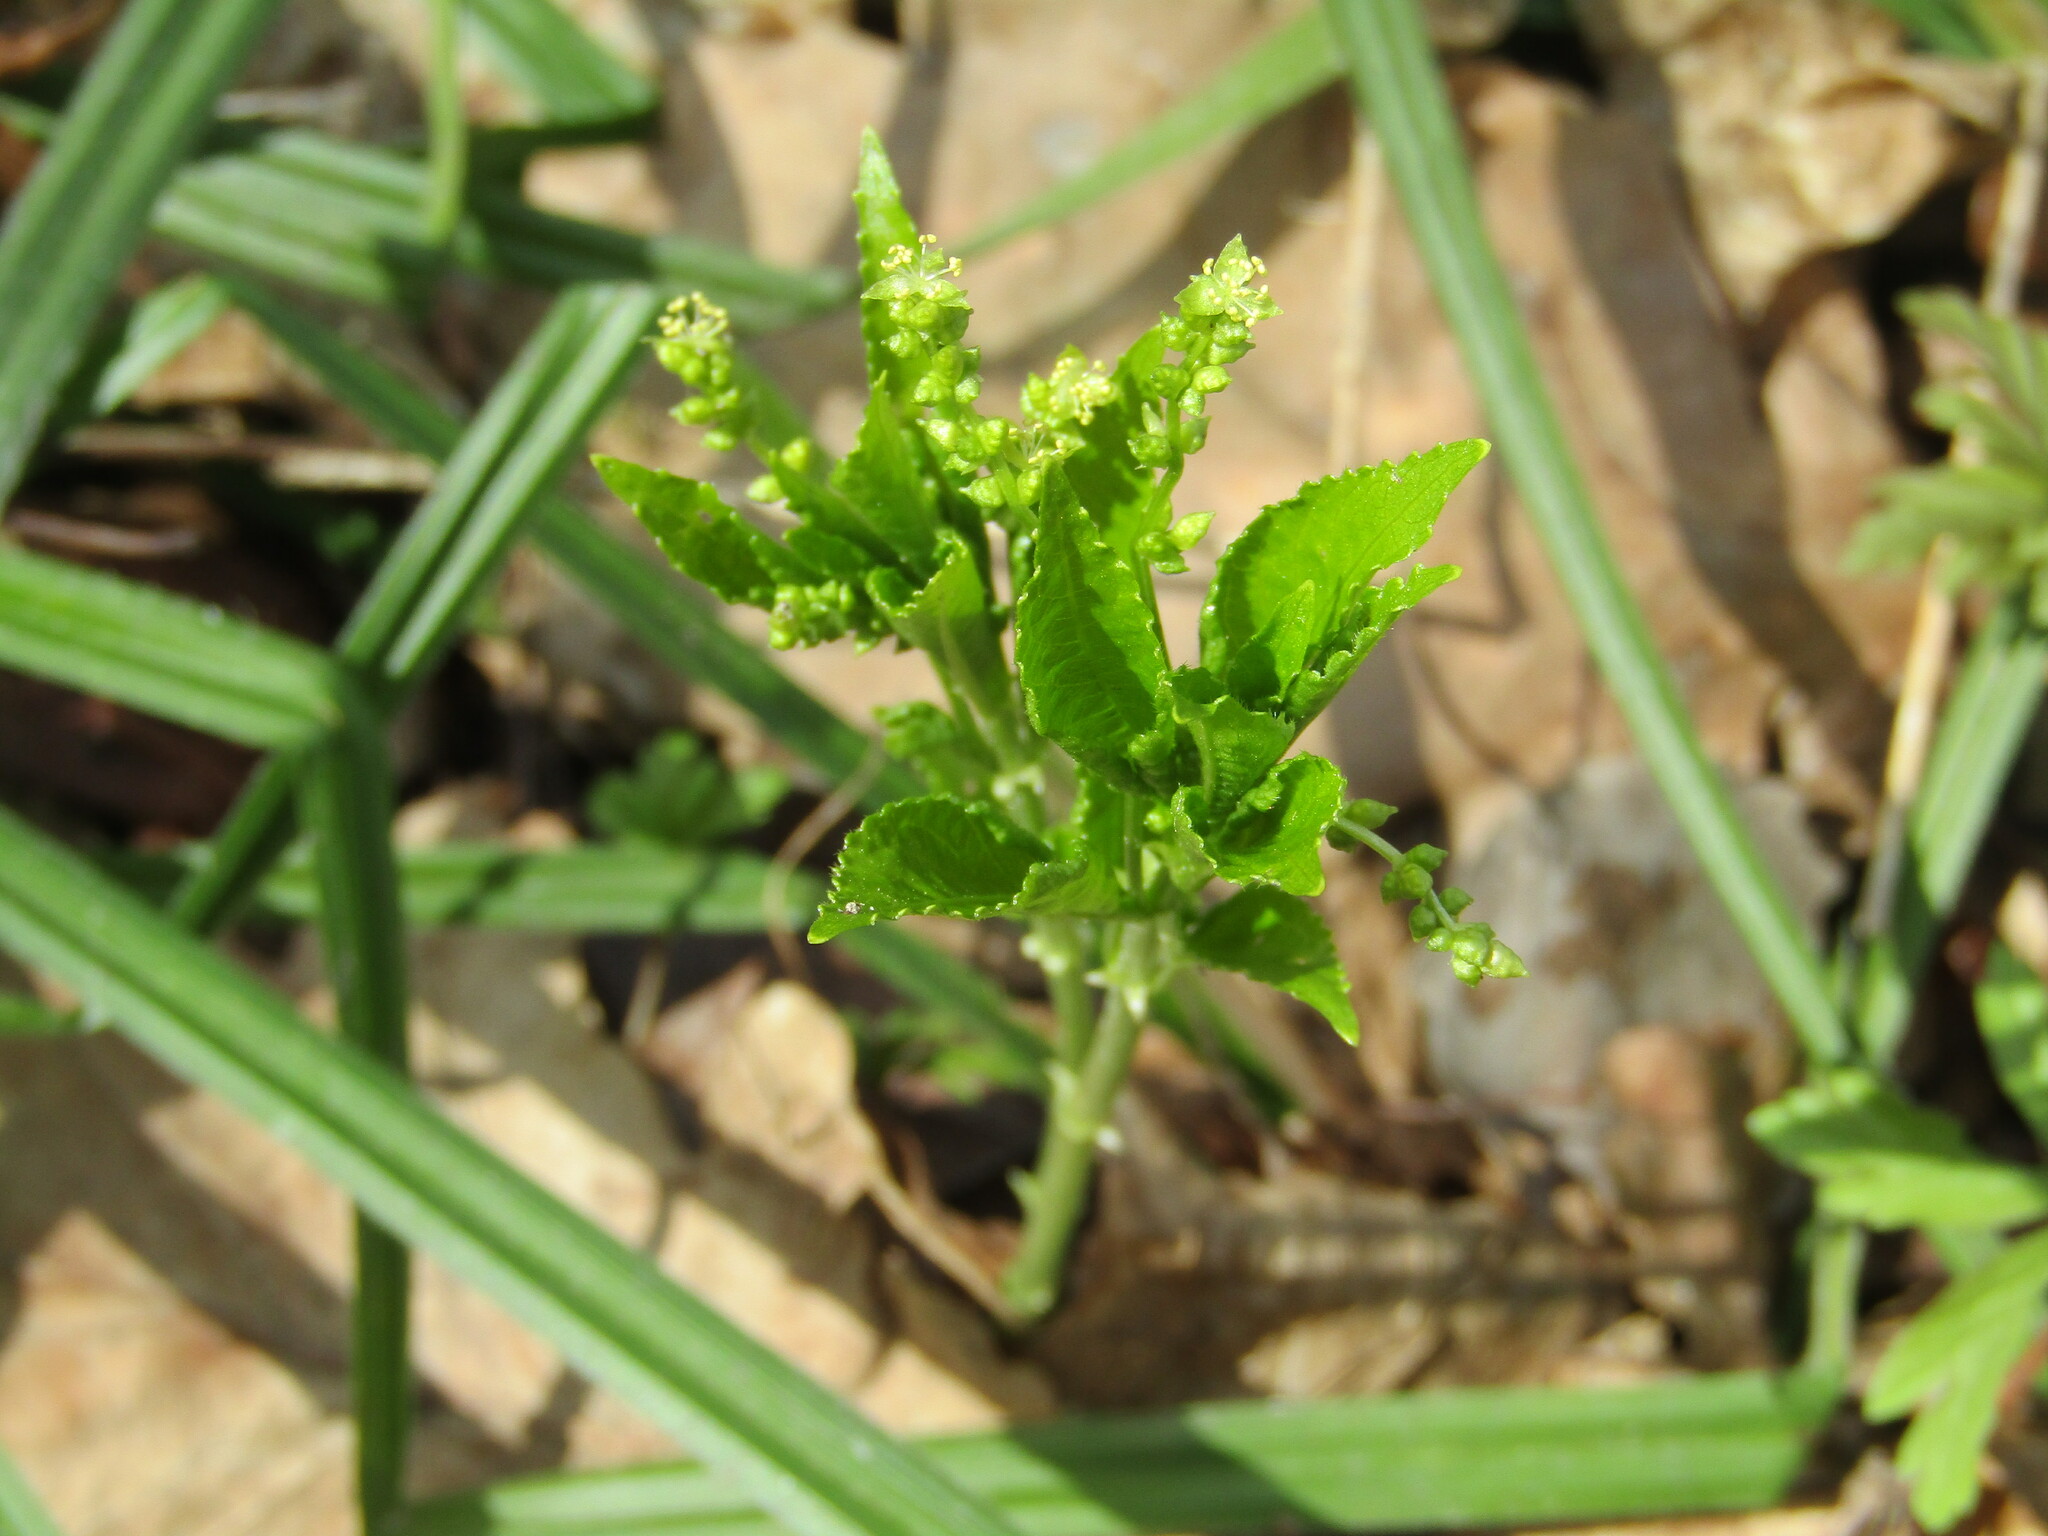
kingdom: Plantae
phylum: Tracheophyta
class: Magnoliopsida
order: Malpighiales
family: Euphorbiaceae
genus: Mercurialis
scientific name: Mercurialis perennis
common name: Dog mercury
